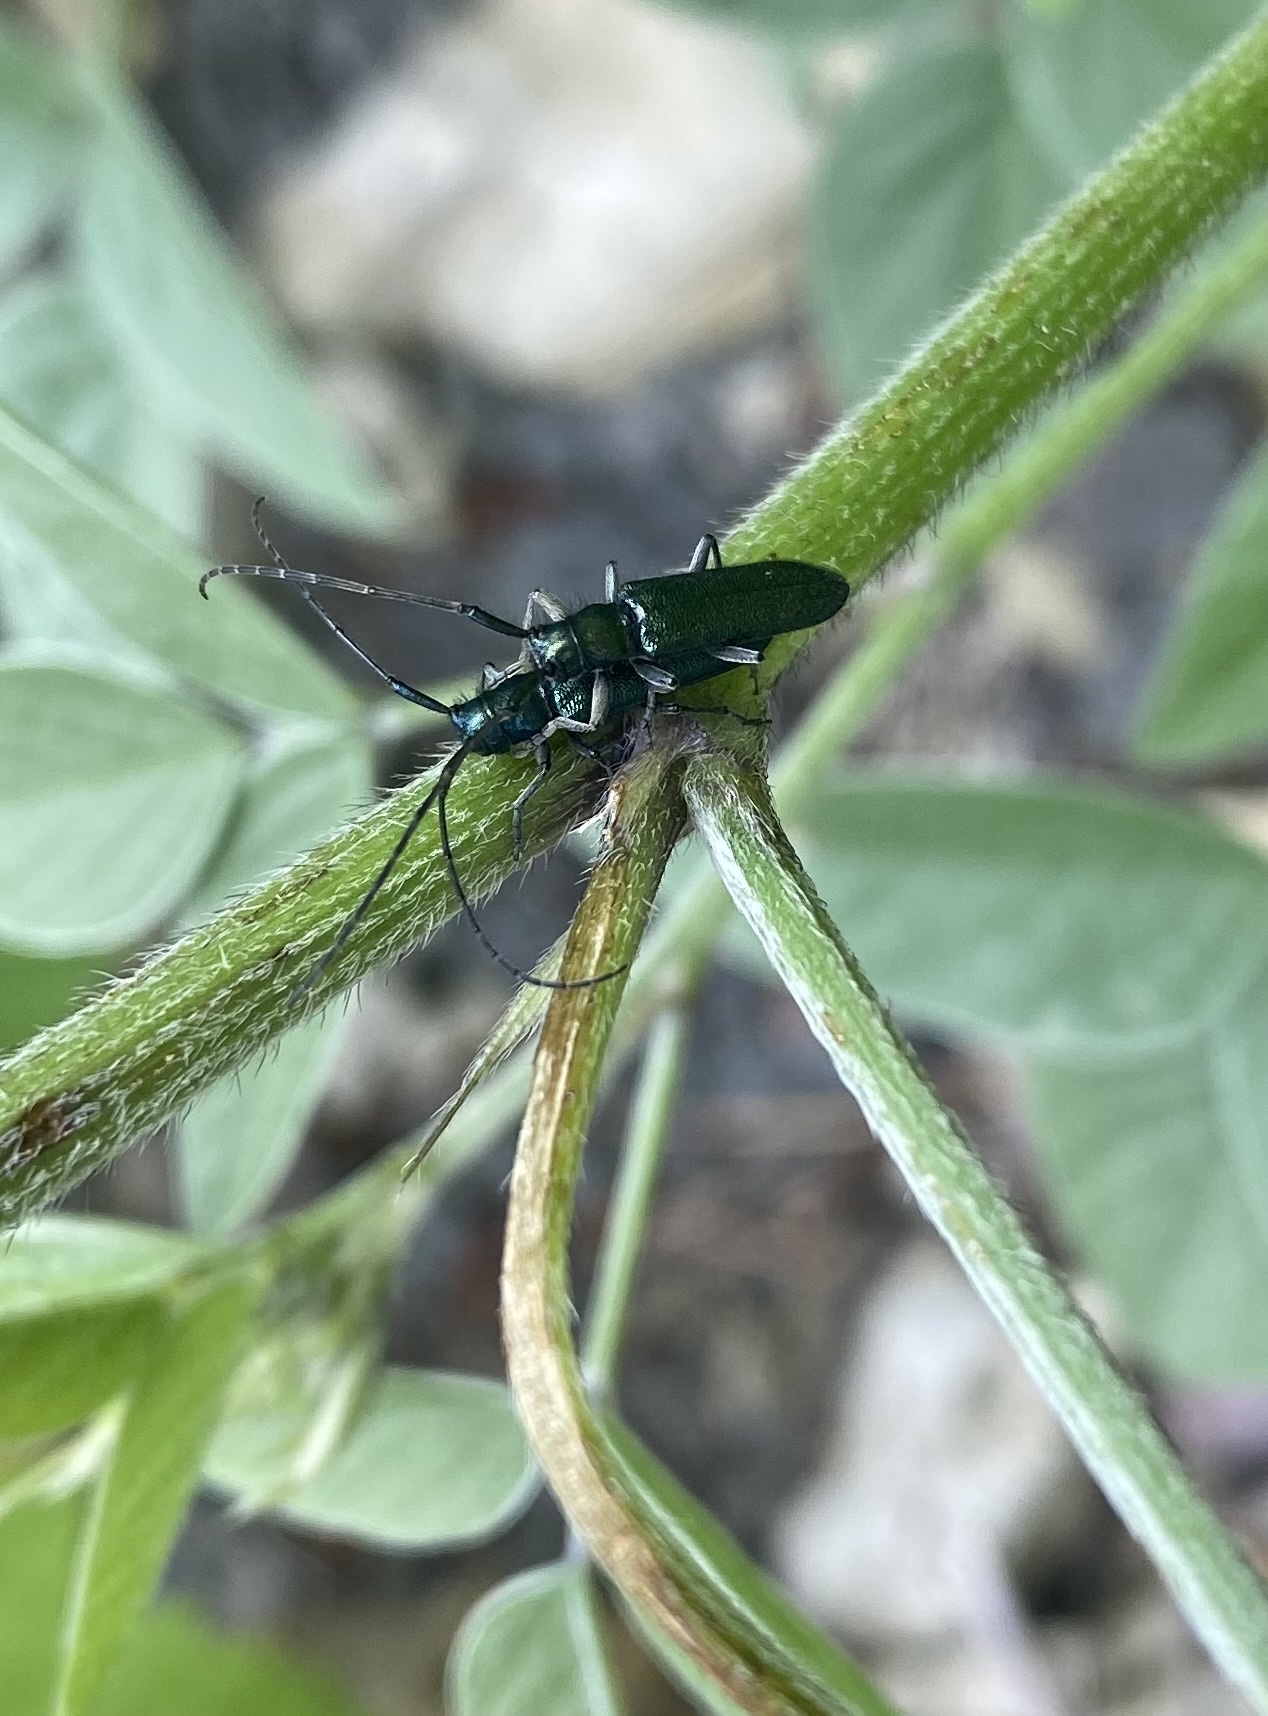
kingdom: Animalia
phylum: Arthropoda
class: Insecta
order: Coleoptera
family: Cerambycidae
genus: Smaragdula
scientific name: Smaragdula
